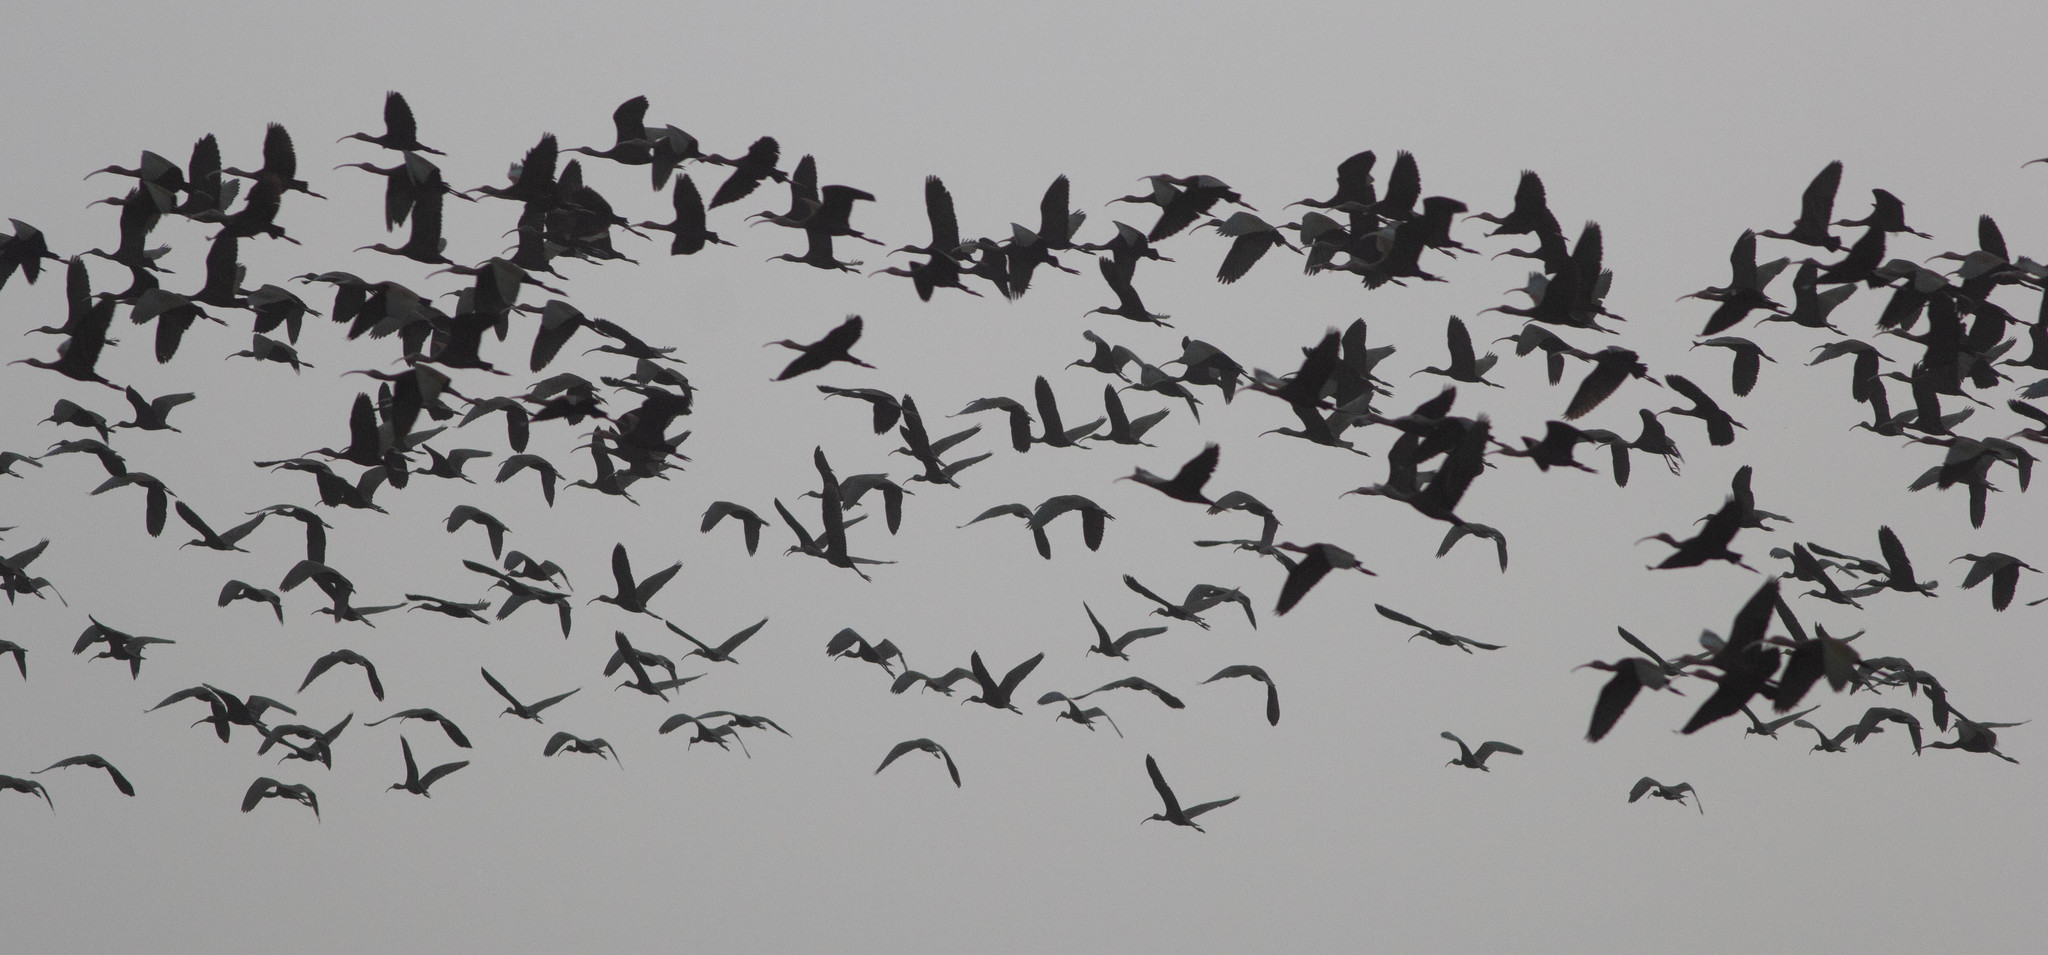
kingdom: Animalia
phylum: Chordata
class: Aves
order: Pelecaniformes
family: Threskiornithidae
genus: Plegadis
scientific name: Plegadis chihi
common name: White-faced ibis
